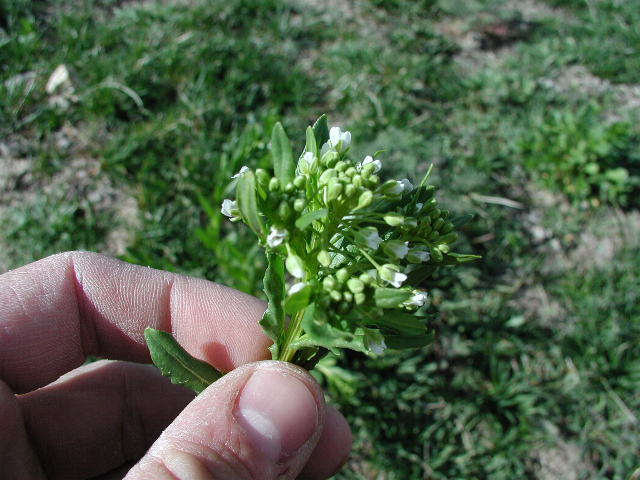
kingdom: Plantae
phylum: Tracheophyta
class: Magnoliopsida
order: Brassicales
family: Brassicaceae
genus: Thlaspi
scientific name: Thlaspi arvense
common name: Field pennycress
